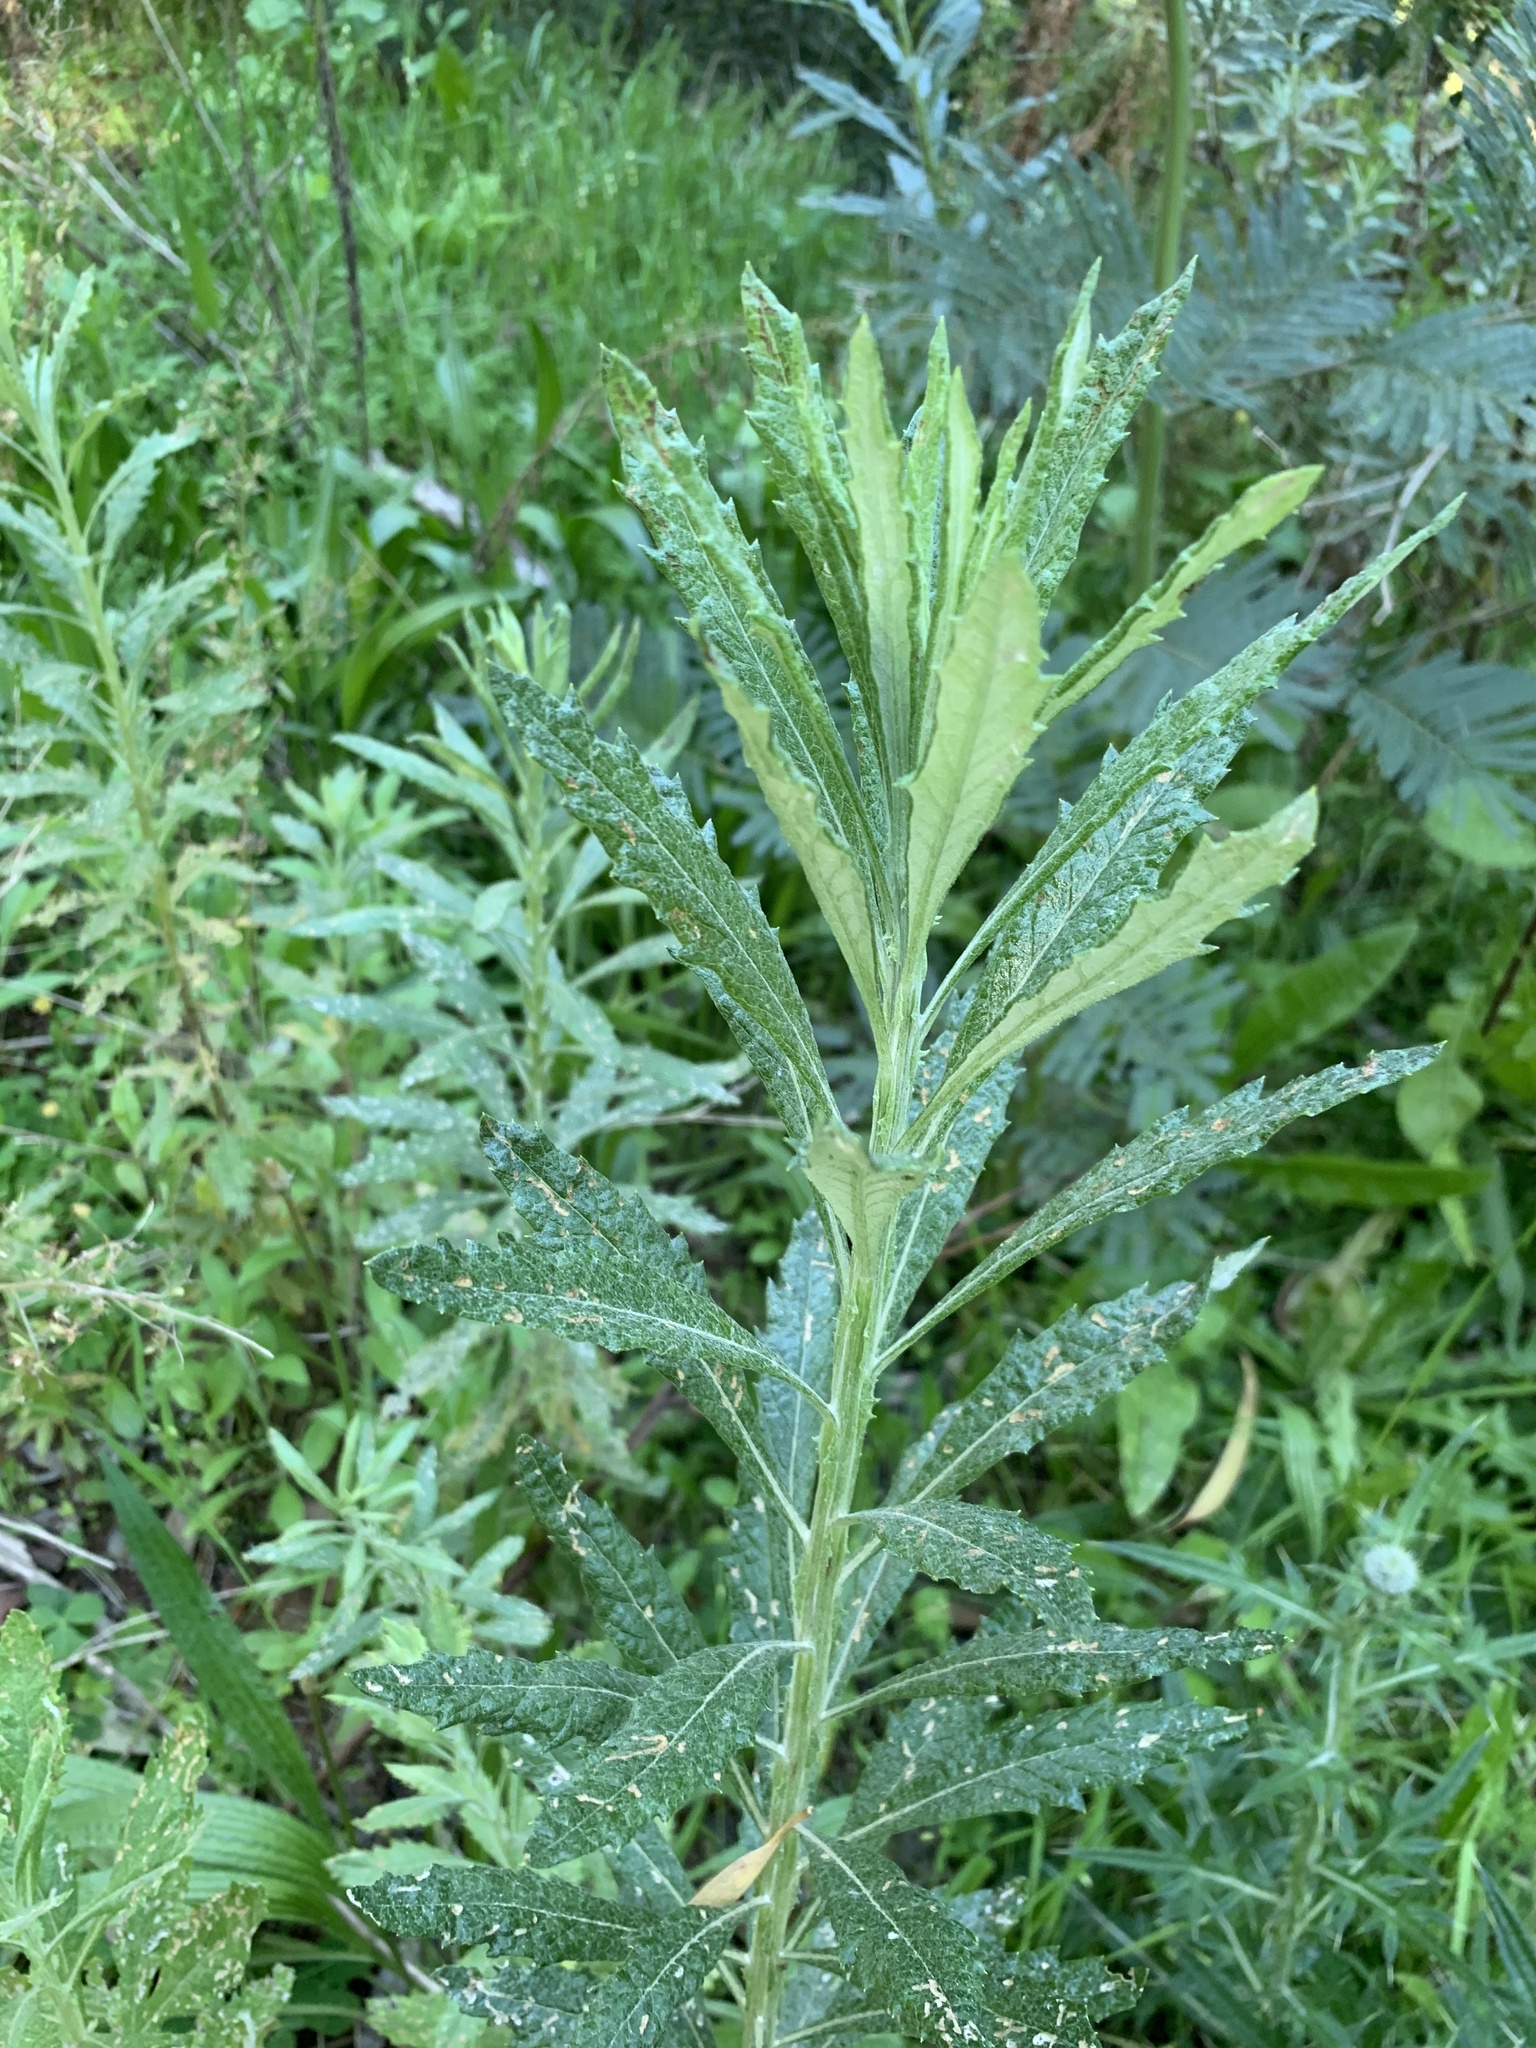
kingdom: Plantae
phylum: Tracheophyta
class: Magnoliopsida
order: Asterales
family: Asteraceae
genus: Senecio
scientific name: Senecio pterophorus
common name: Shoddy ragwort
